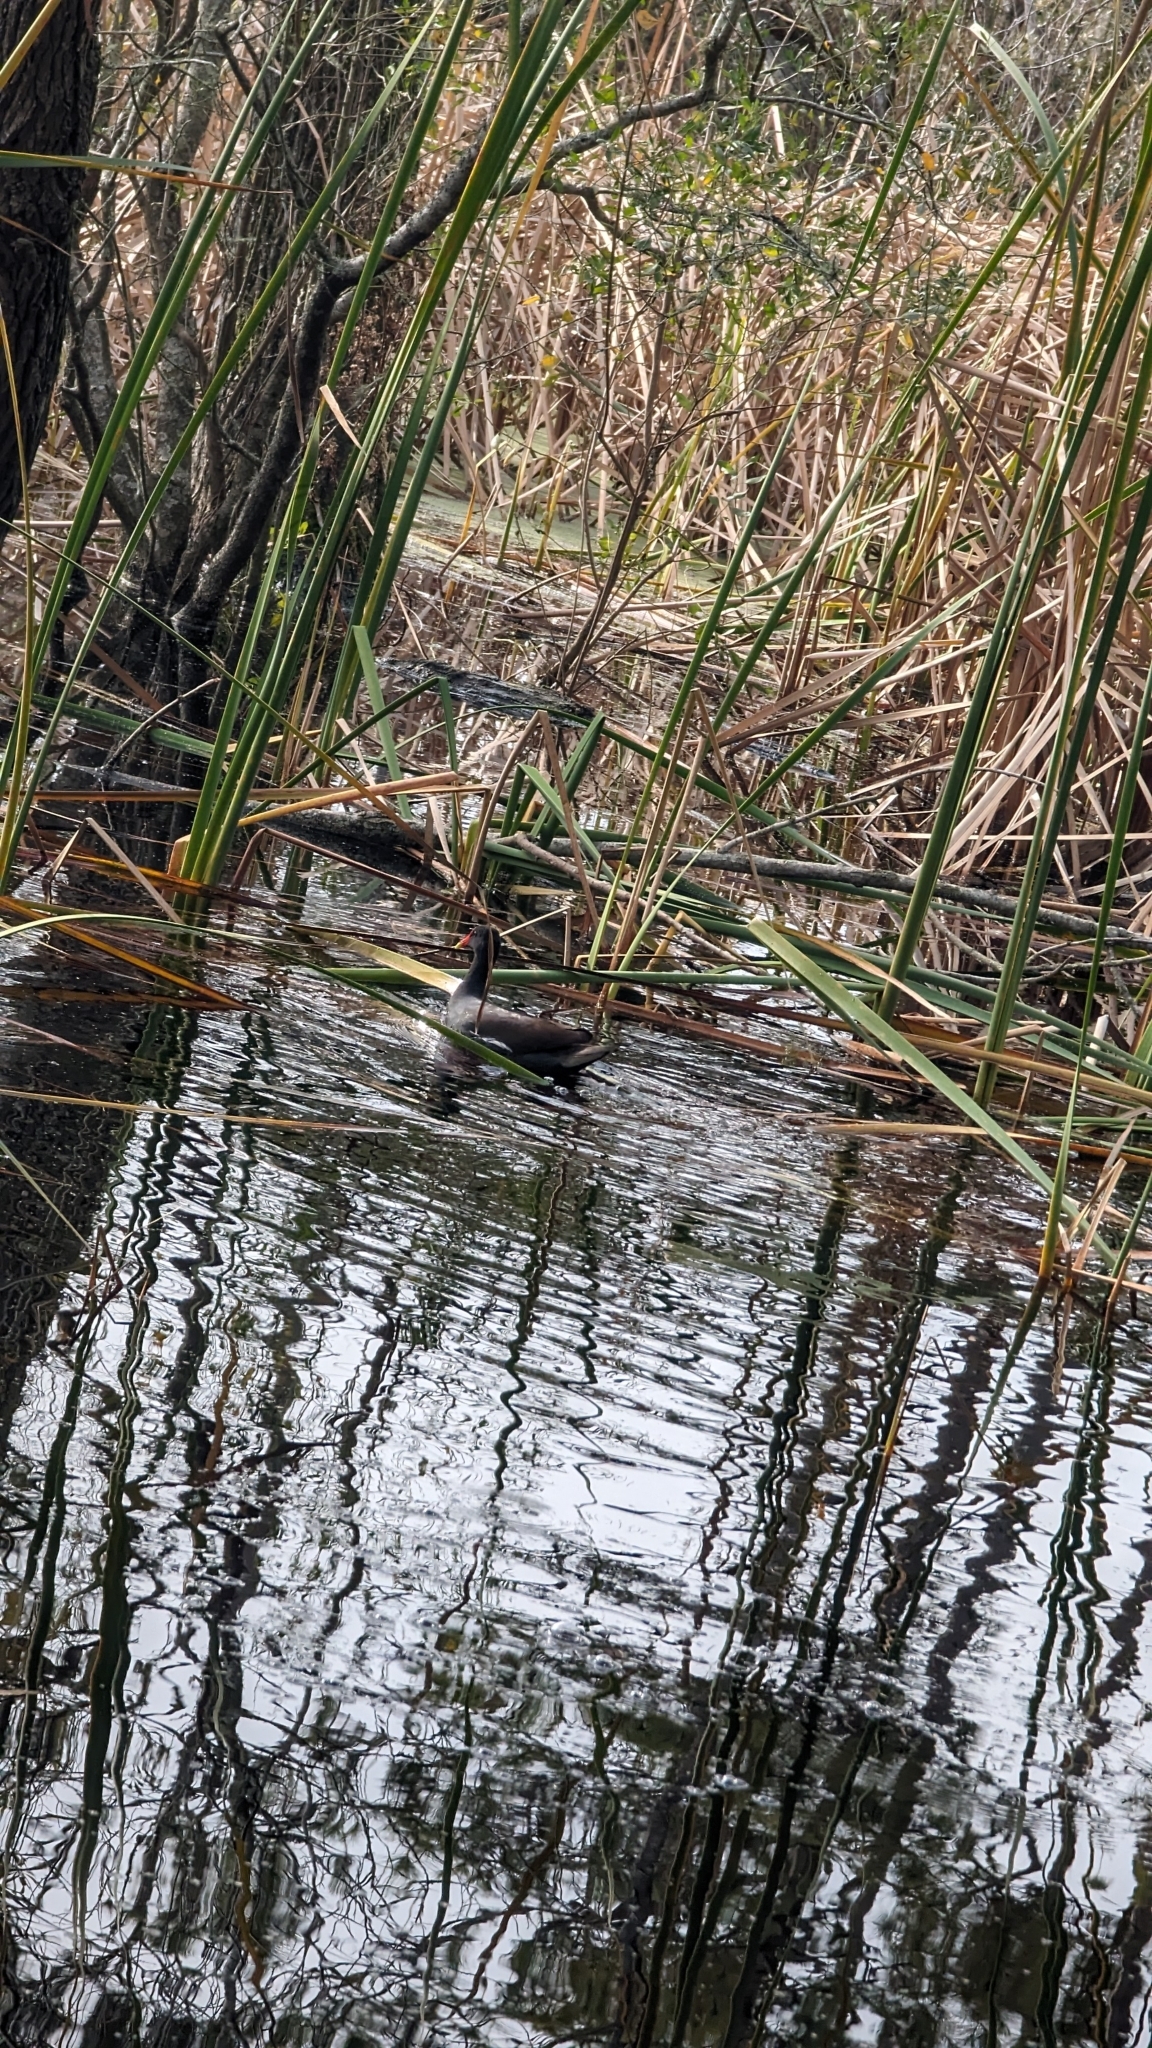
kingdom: Animalia
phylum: Chordata
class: Aves
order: Gruiformes
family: Rallidae
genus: Gallinula
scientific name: Gallinula chloropus
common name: Common moorhen
